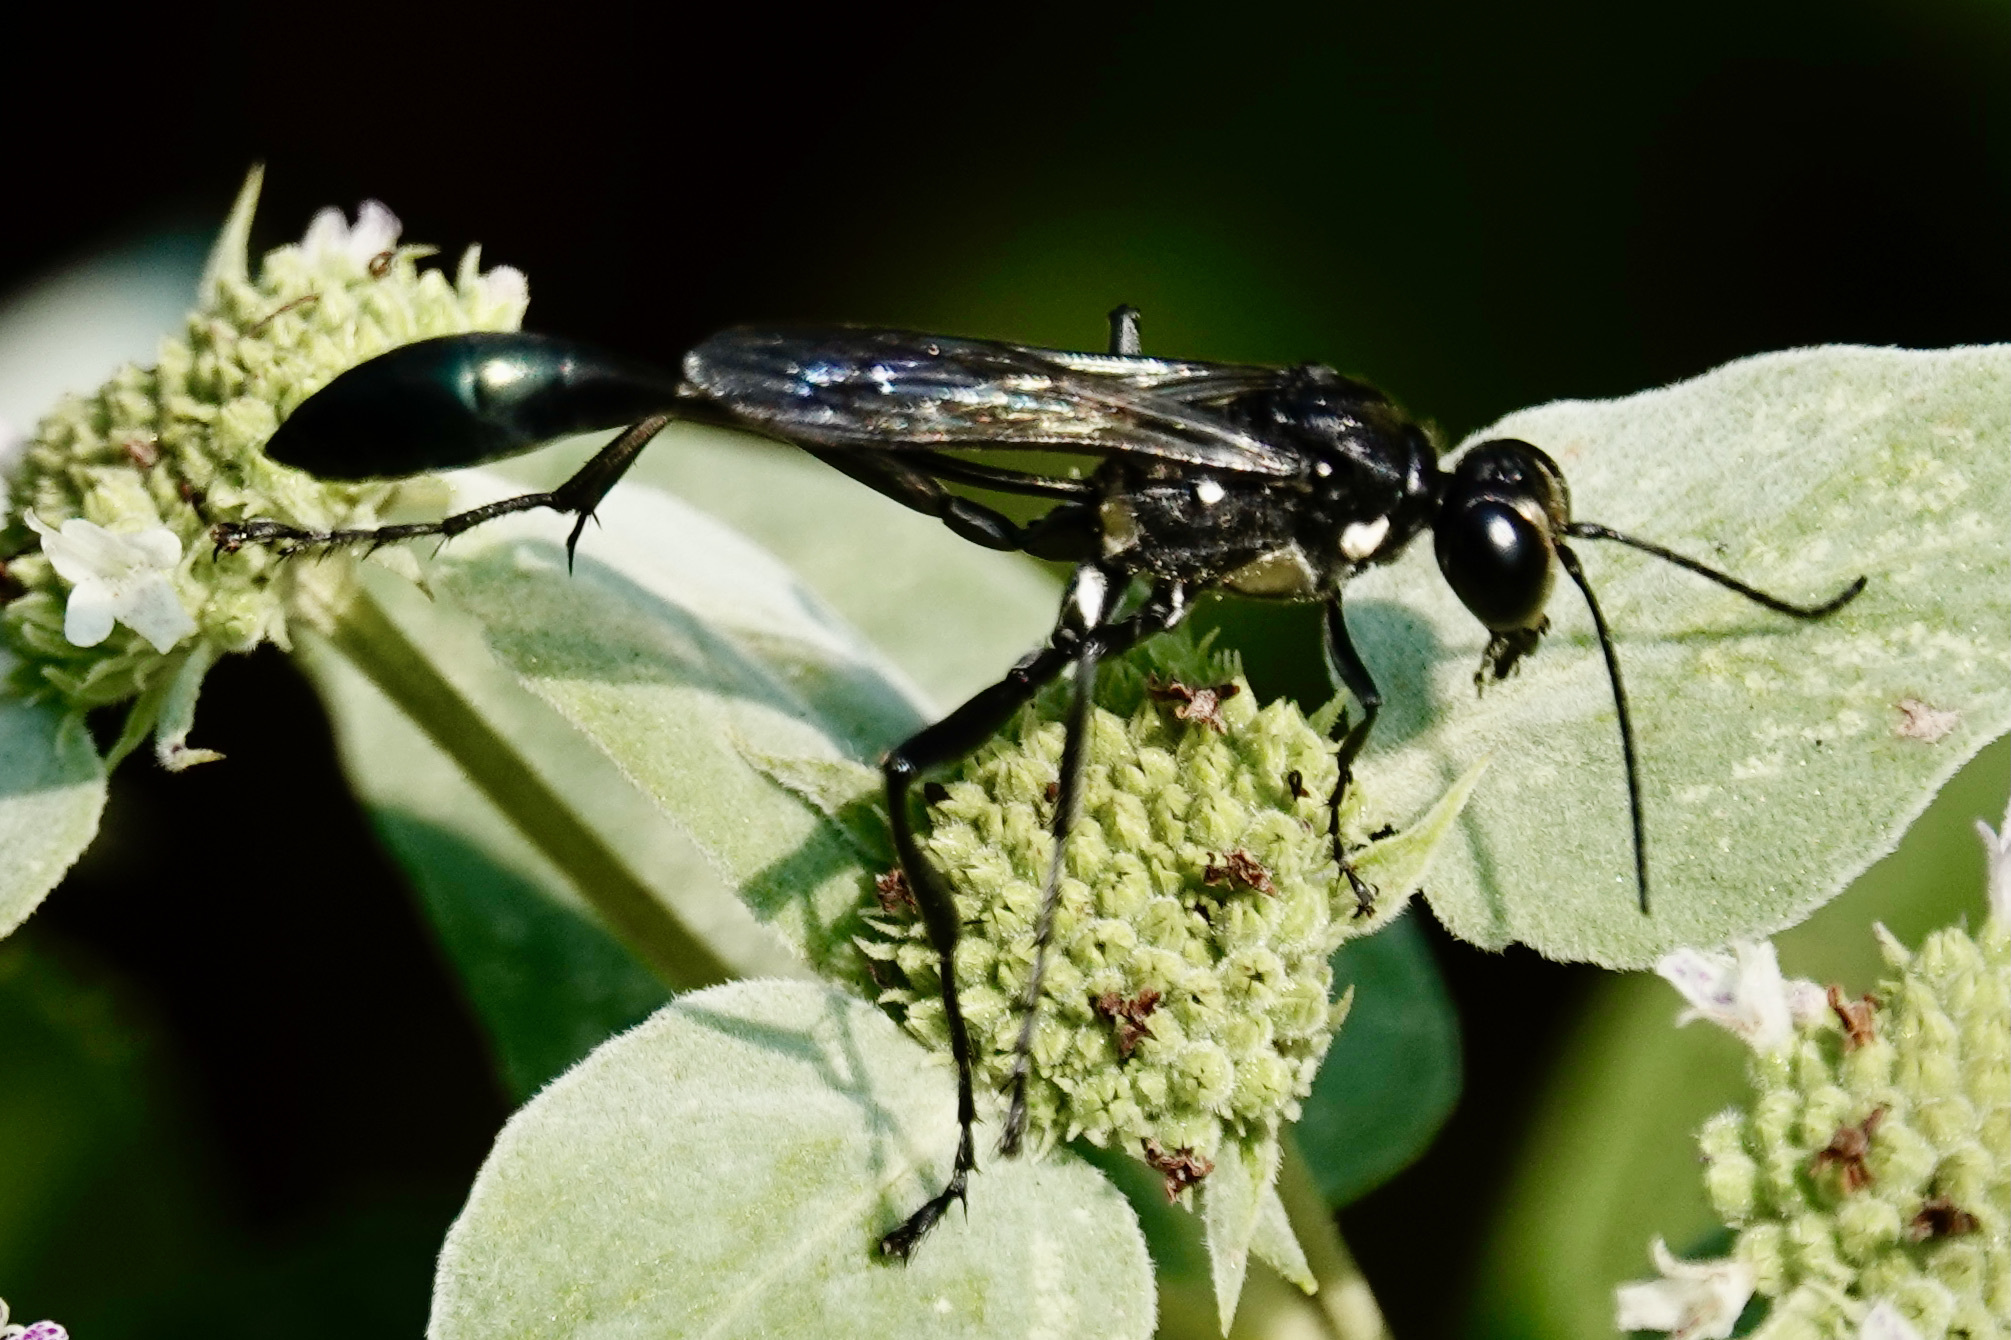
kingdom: Animalia
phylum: Arthropoda
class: Insecta
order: Hymenoptera
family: Sphecidae
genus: Eremnophila
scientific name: Eremnophila aureonotata
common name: Gold-marked thread-waisted wasp
